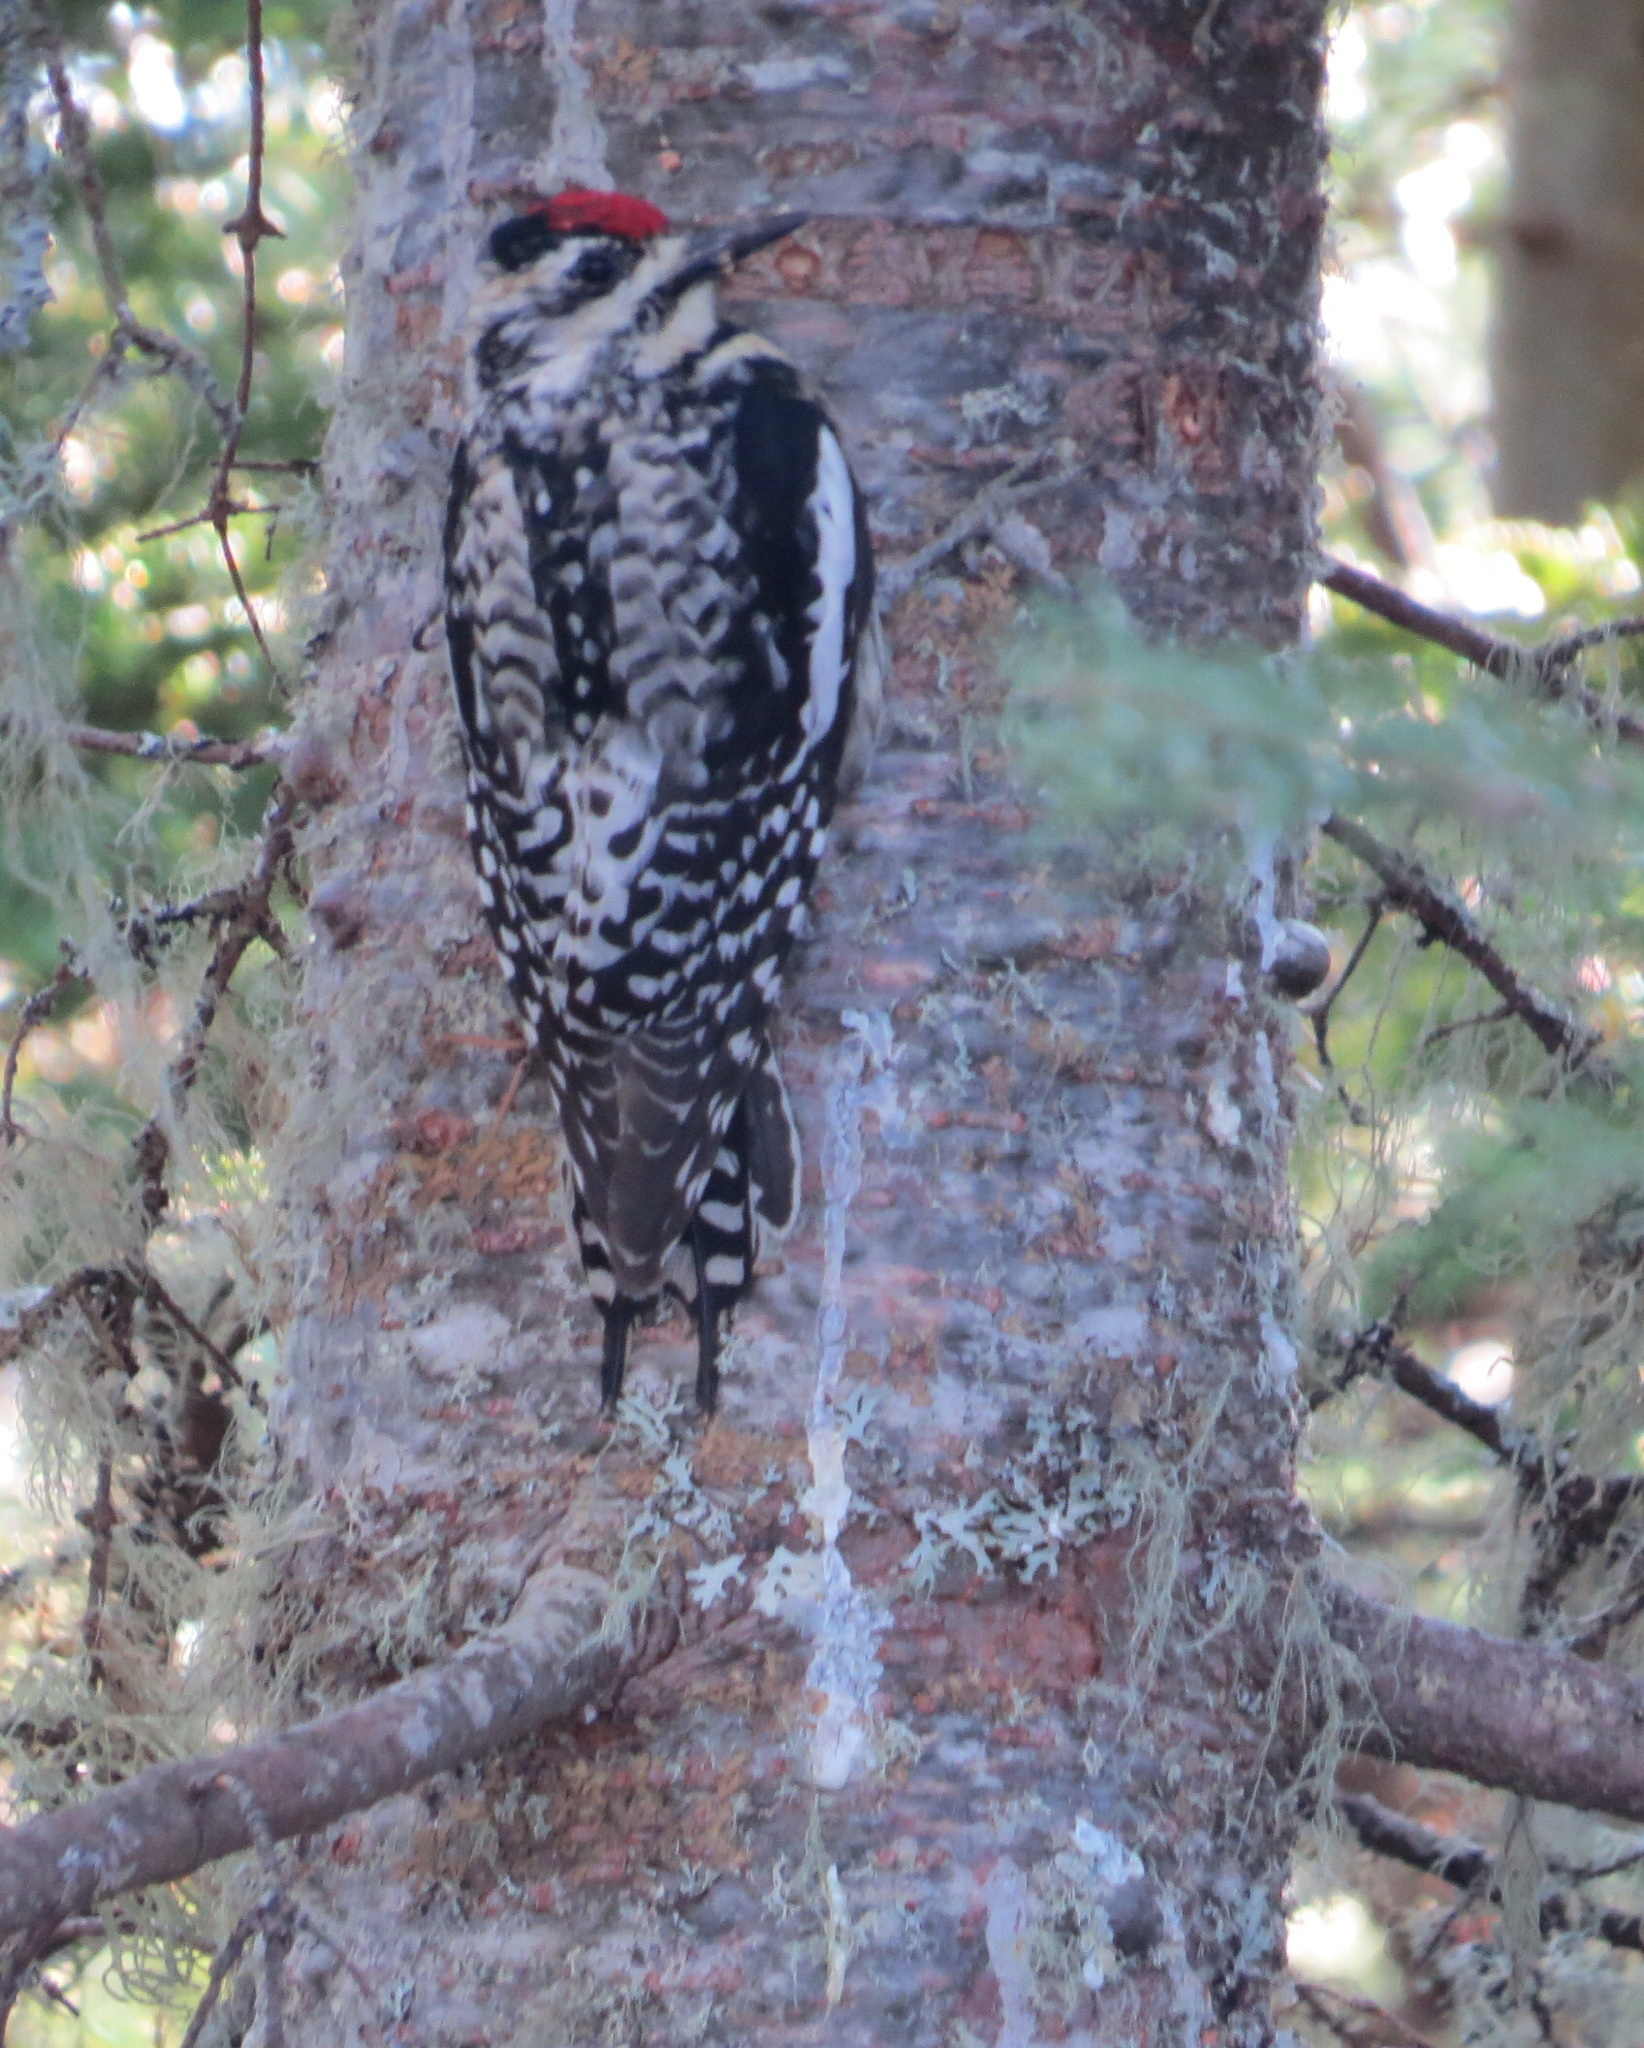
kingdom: Animalia
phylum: Chordata
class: Aves
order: Piciformes
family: Picidae
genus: Sphyrapicus
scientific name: Sphyrapicus varius
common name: Yellow-bellied sapsucker
